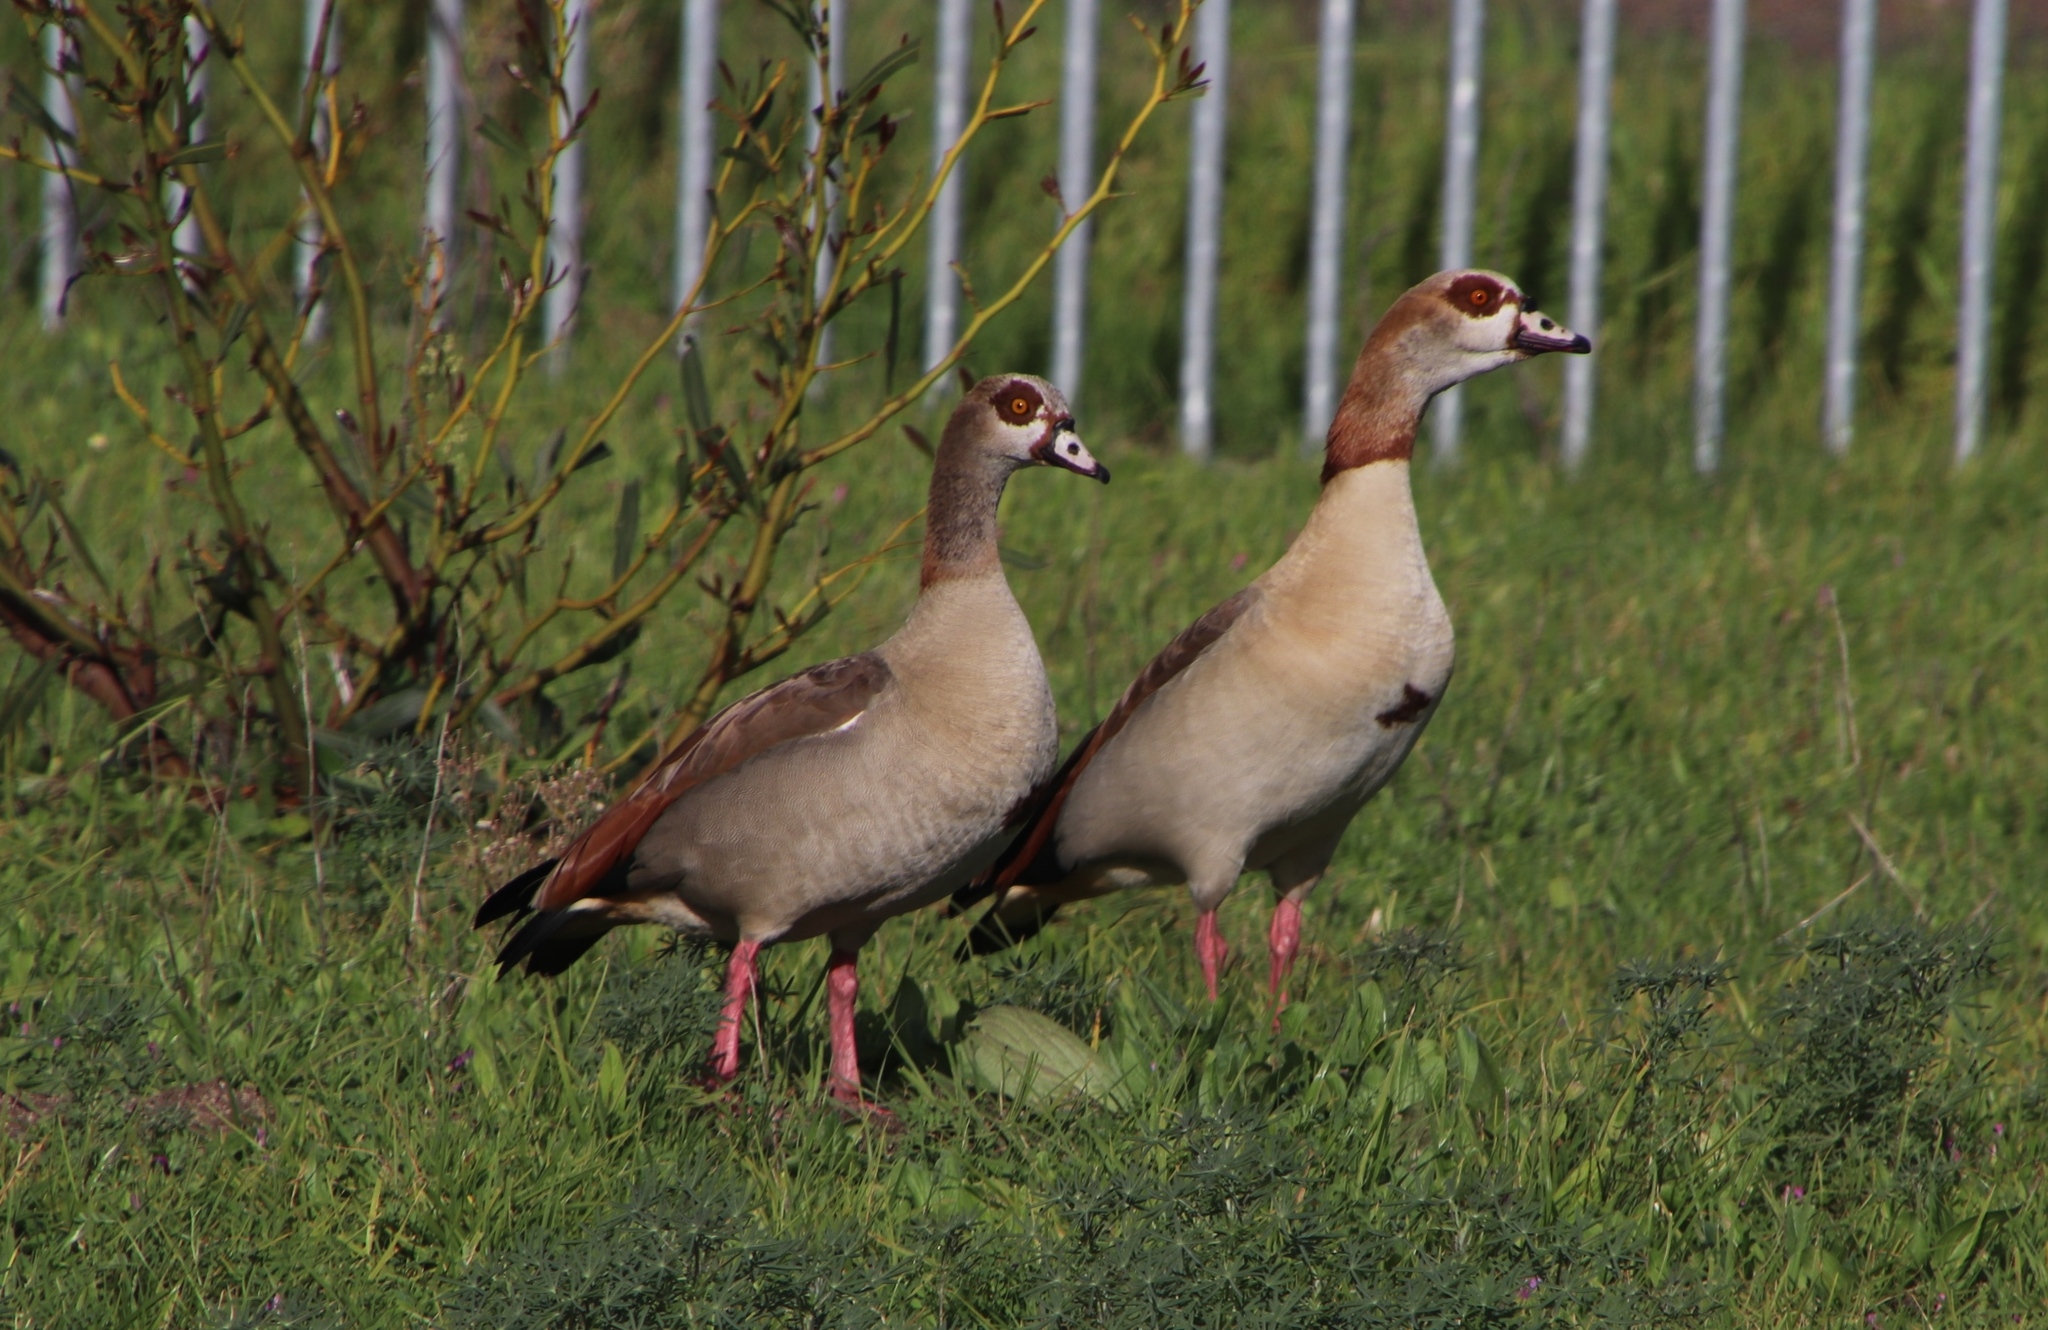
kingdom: Animalia
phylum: Chordata
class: Aves
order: Anseriformes
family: Anatidae
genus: Alopochen
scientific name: Alopochen aegyptiaca
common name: Egyptian goose
